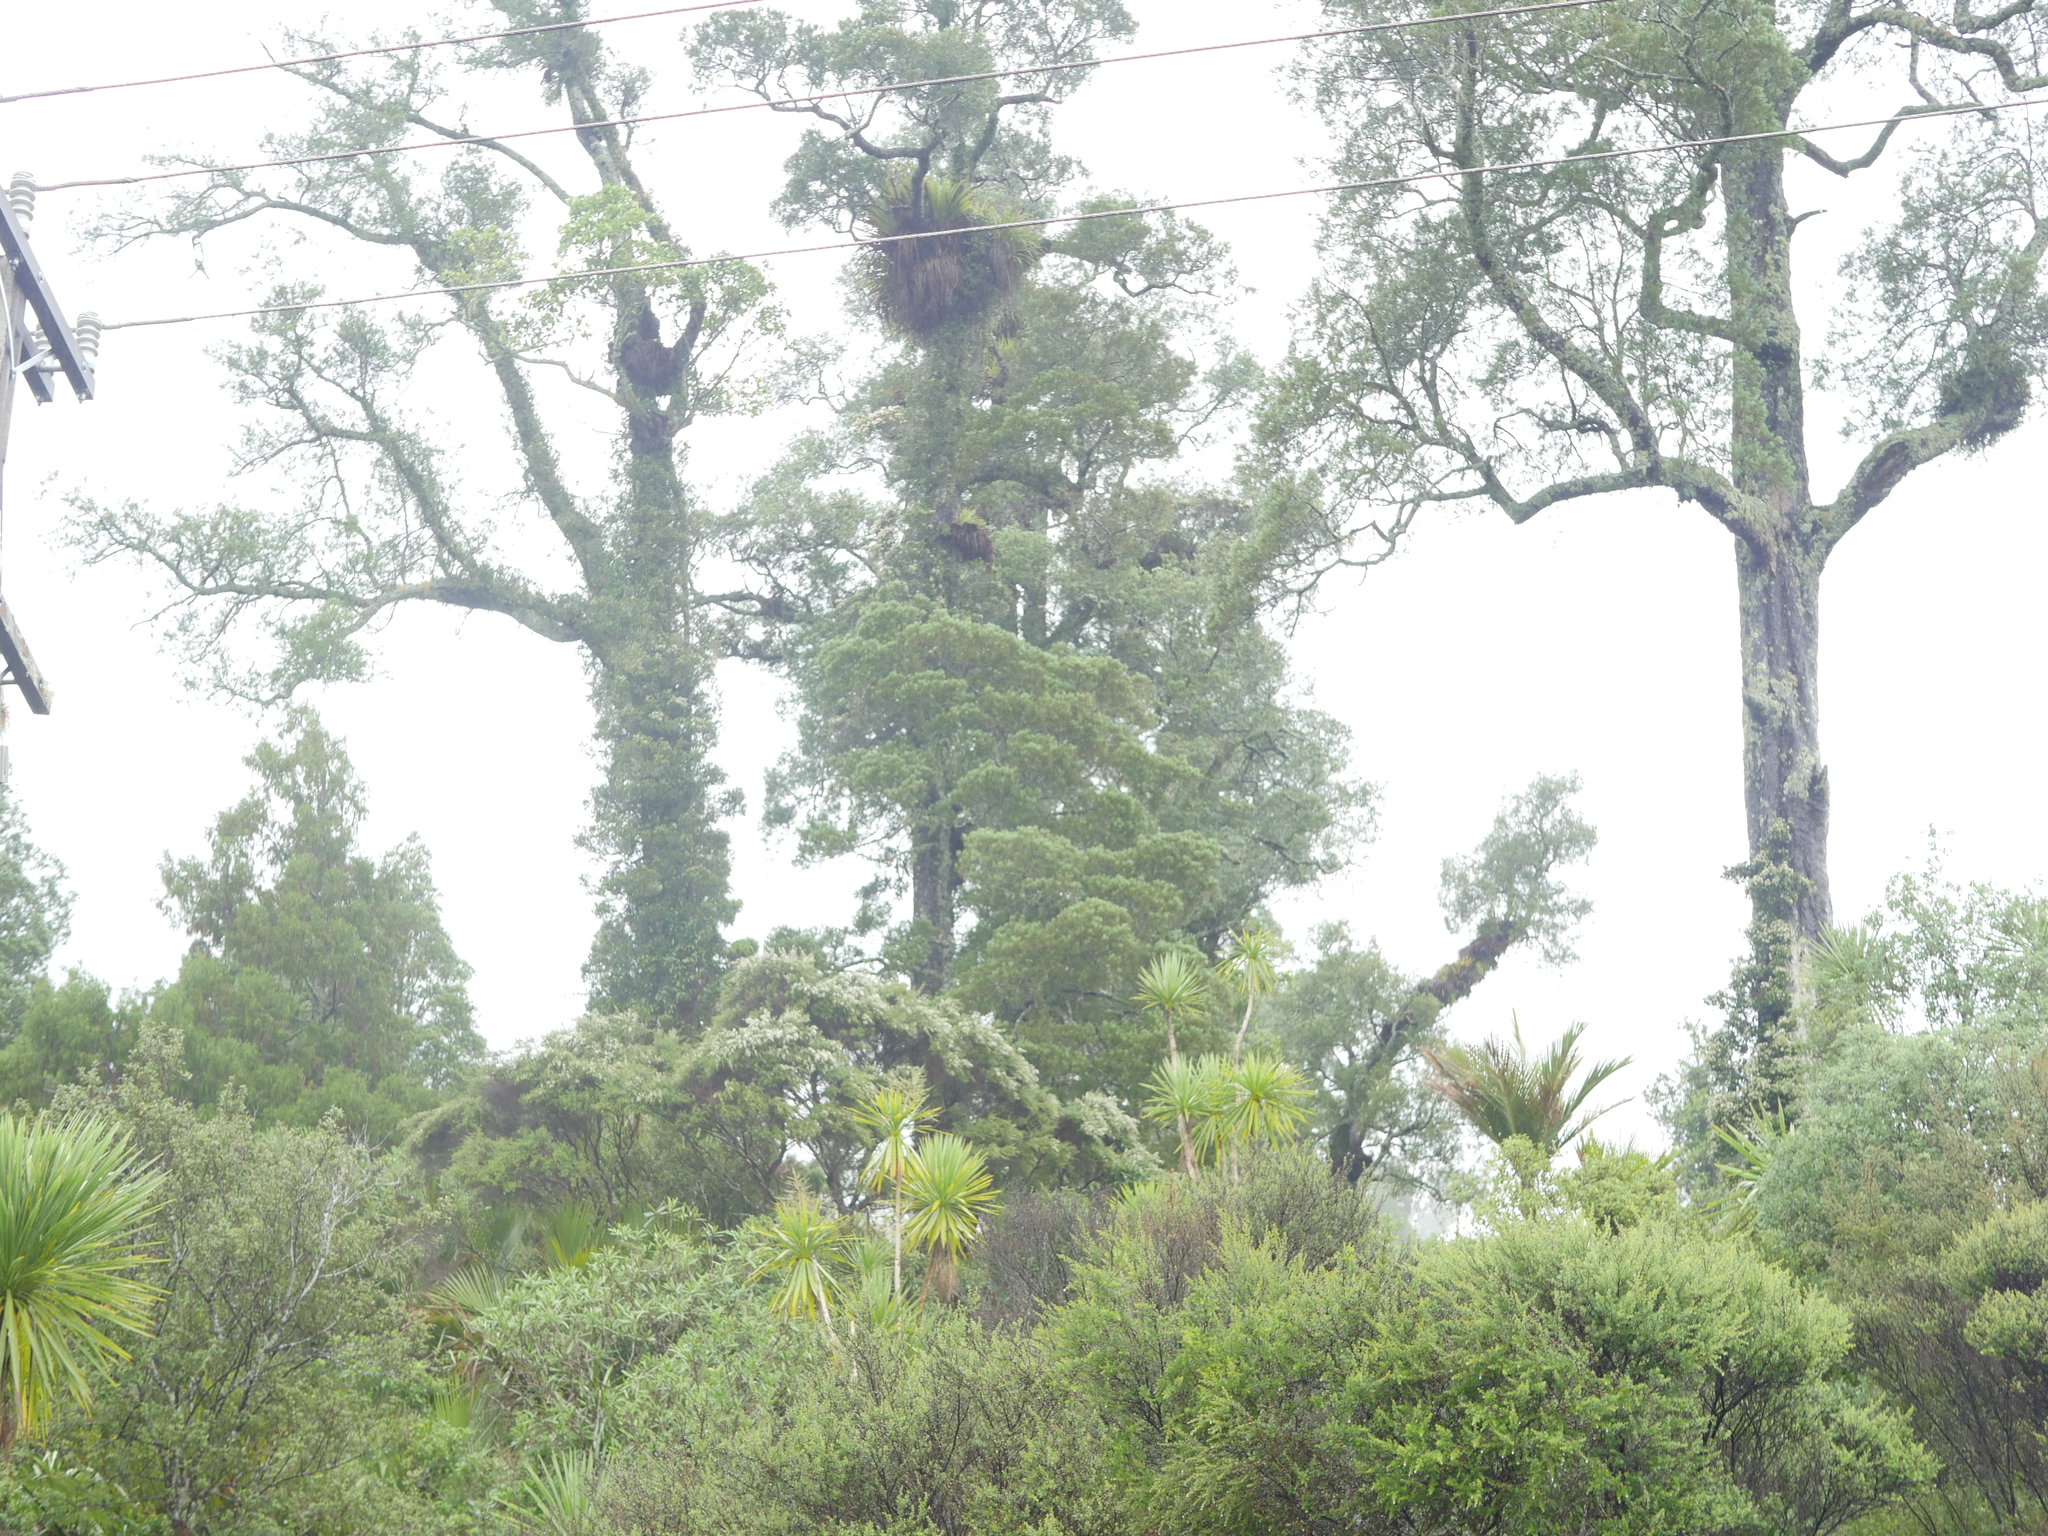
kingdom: Plantae
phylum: Tracheophyta
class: Pinopsida
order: Pinales
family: Podocarpaceae
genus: Dacrycarpus
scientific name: Dacrycarpus dacrydioides
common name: White pine
